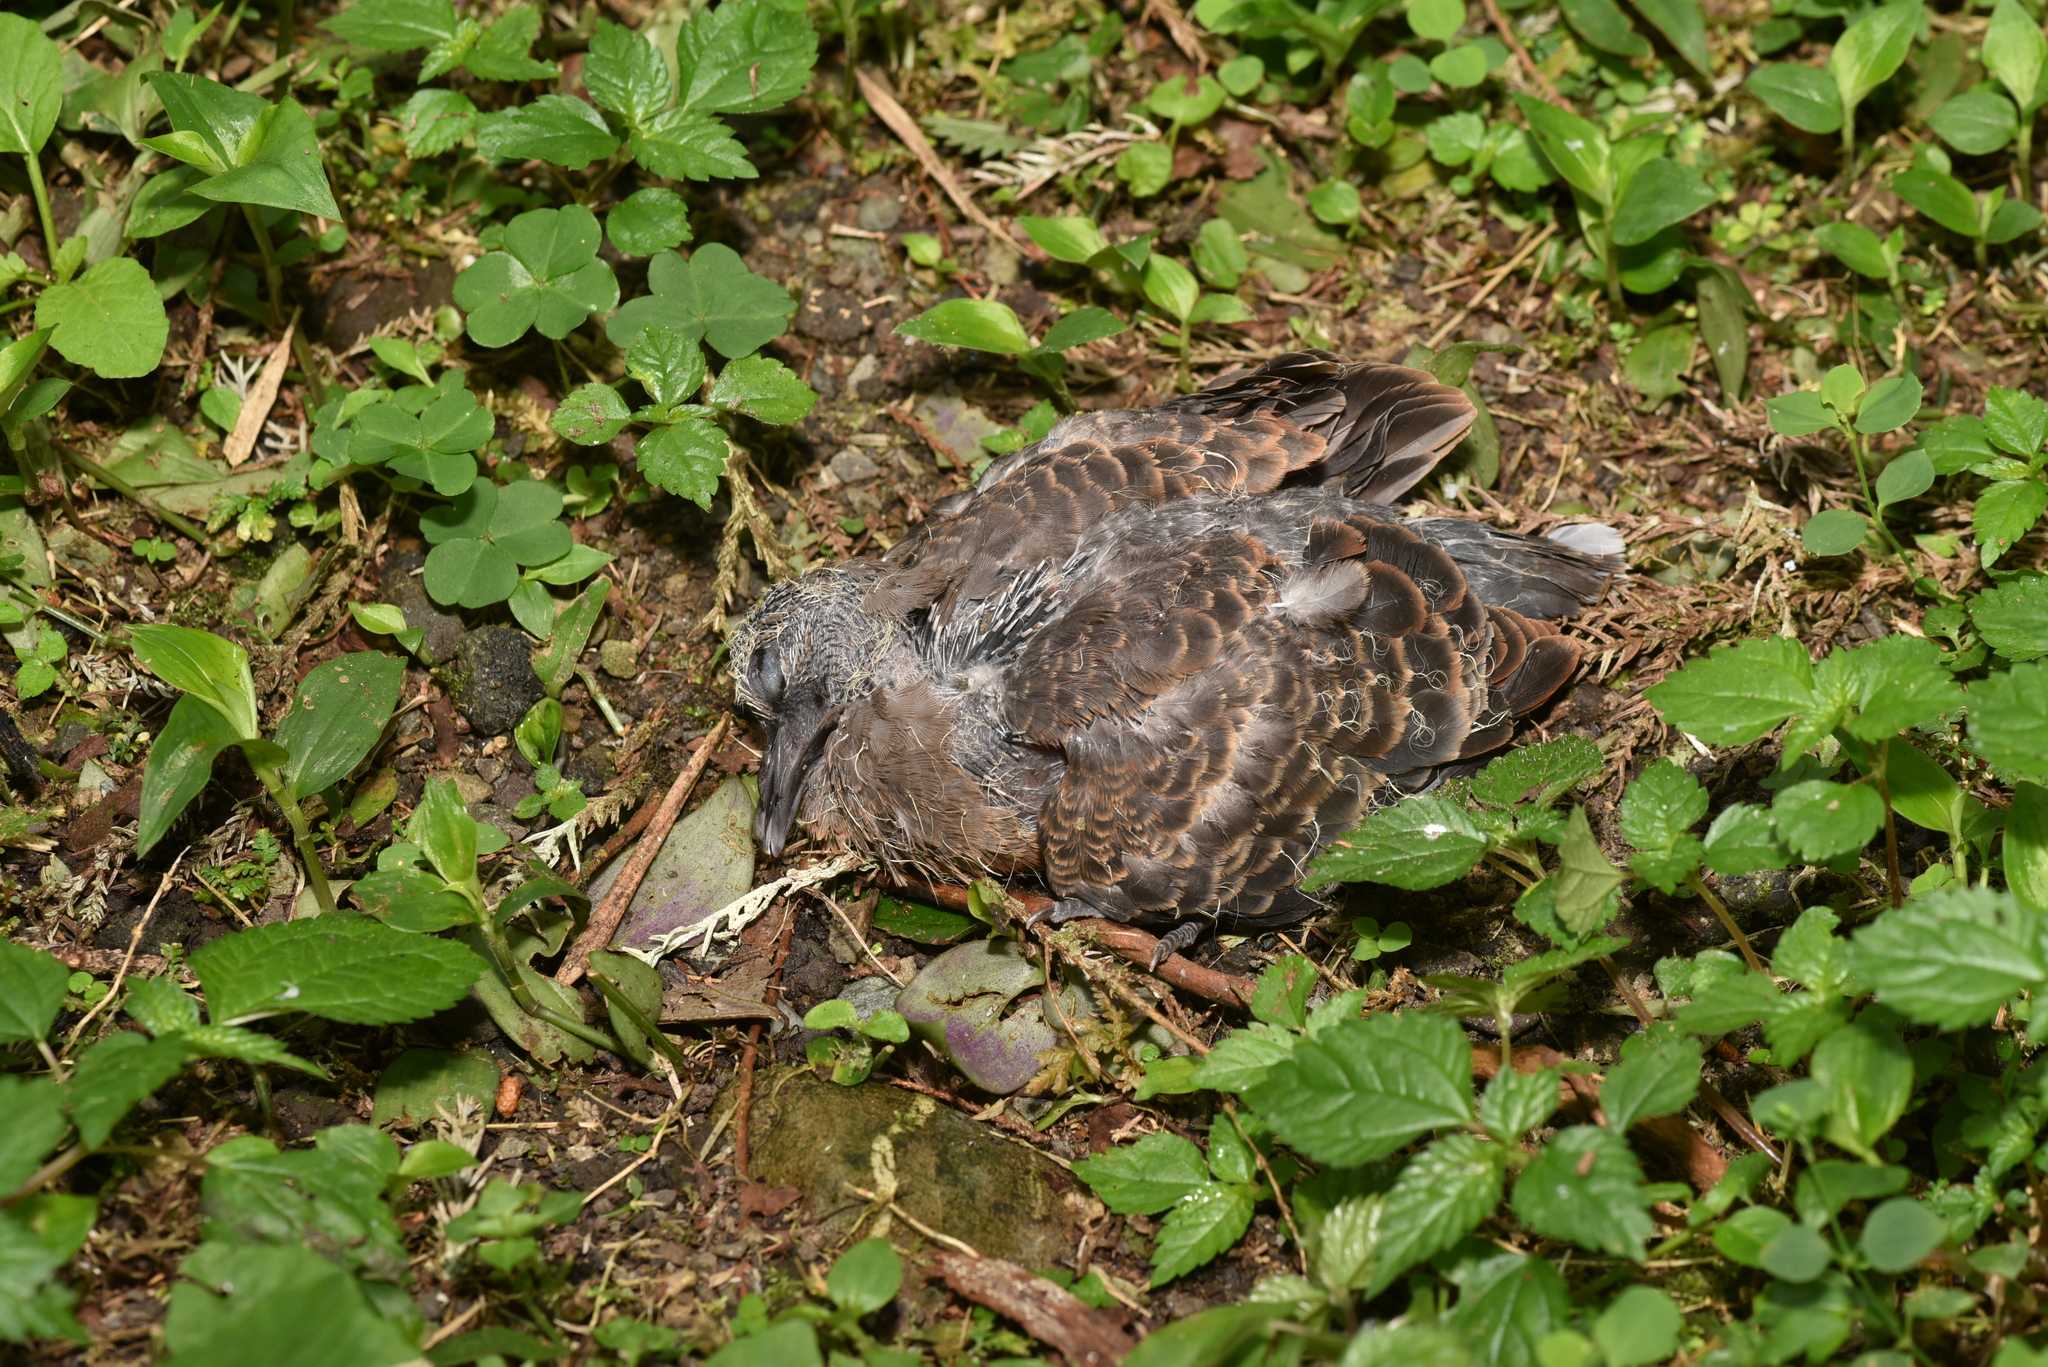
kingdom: Animalia
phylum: Chordata
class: Aves
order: Columbiformes
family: Columbidae
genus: Streptopelia
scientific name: Streptopelia orientalis
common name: Oriental turtle dove
